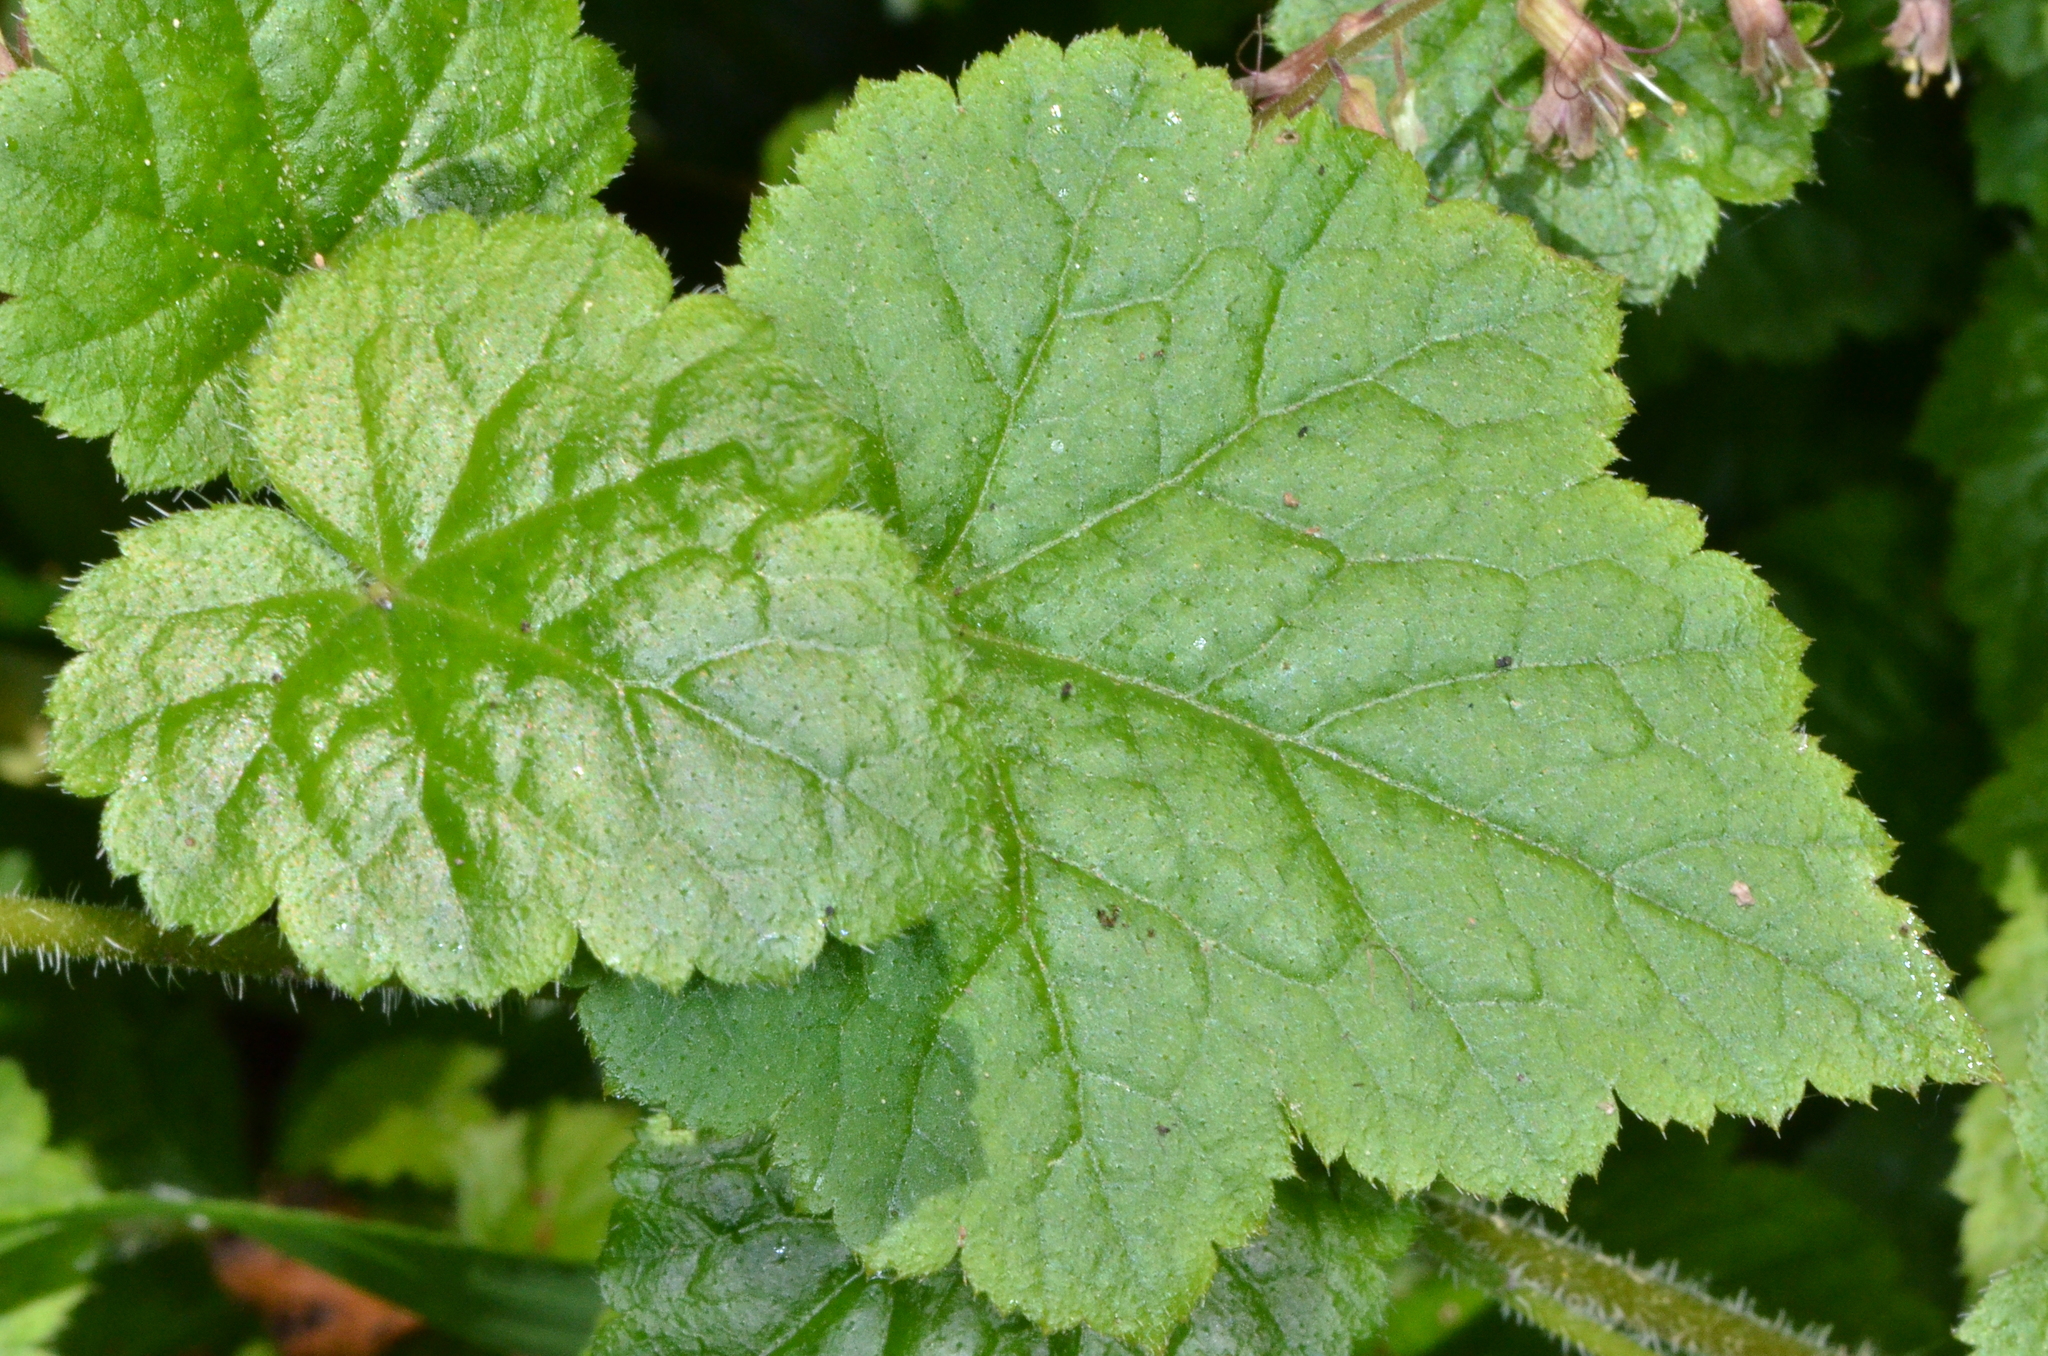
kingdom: Plantae
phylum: Tracheophyta
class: Magnoliopsida
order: Saxifragales
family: Saxifragaceae
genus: Tolmiea
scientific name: Tolmiea diplomenziesii
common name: Youth on age
